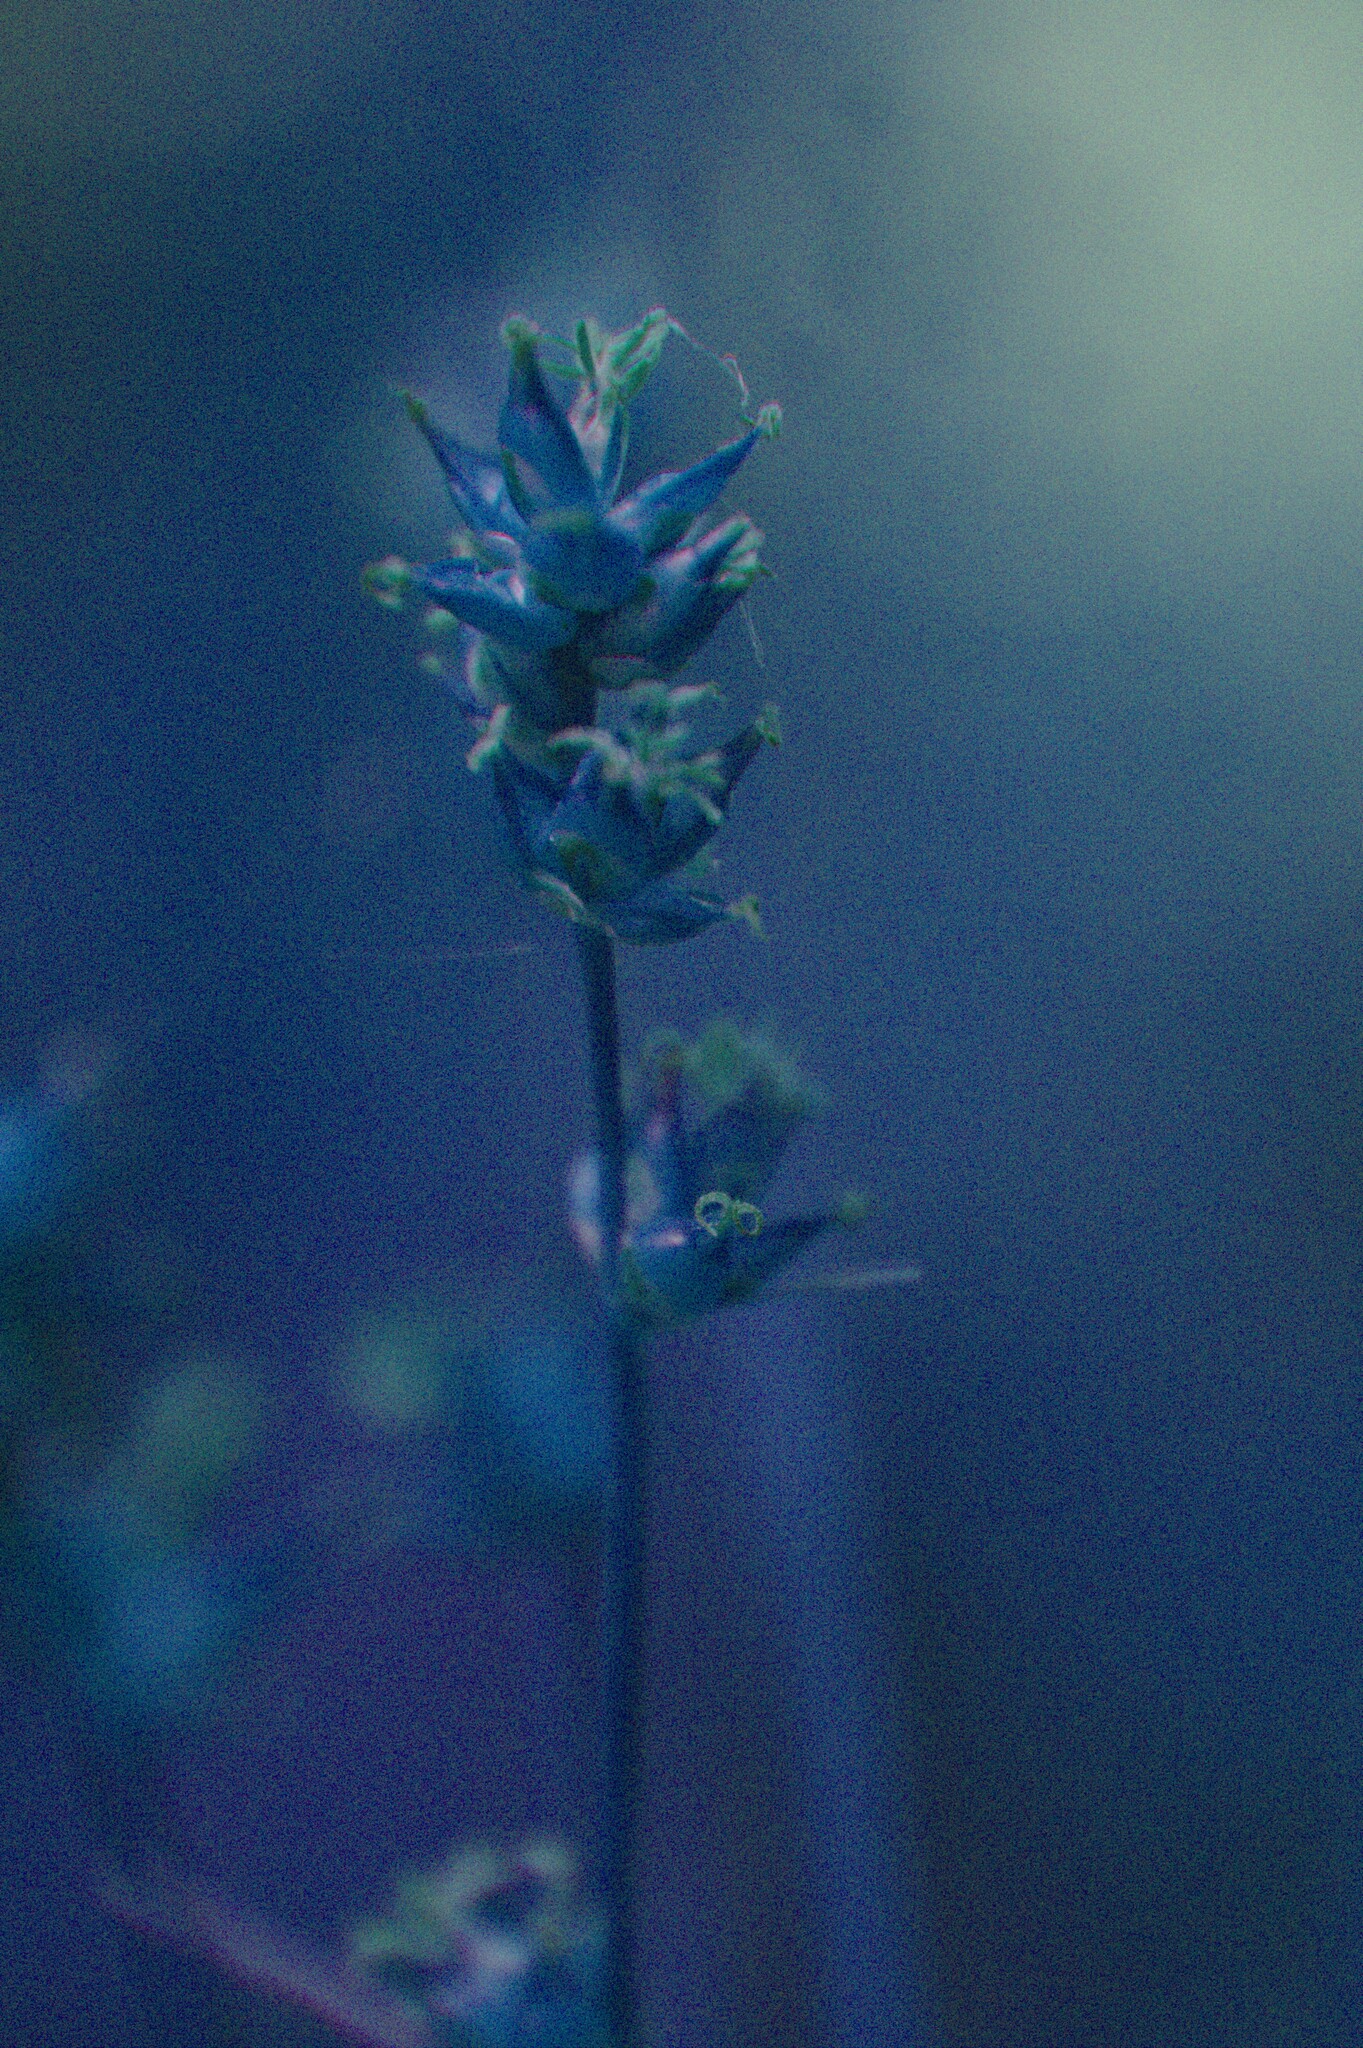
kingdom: Plantae
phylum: Tracheophyta
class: Liliopsida
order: Poales
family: Cyperaceae
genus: Carex
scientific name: Carex rosea
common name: Curly-styled wood sedge
